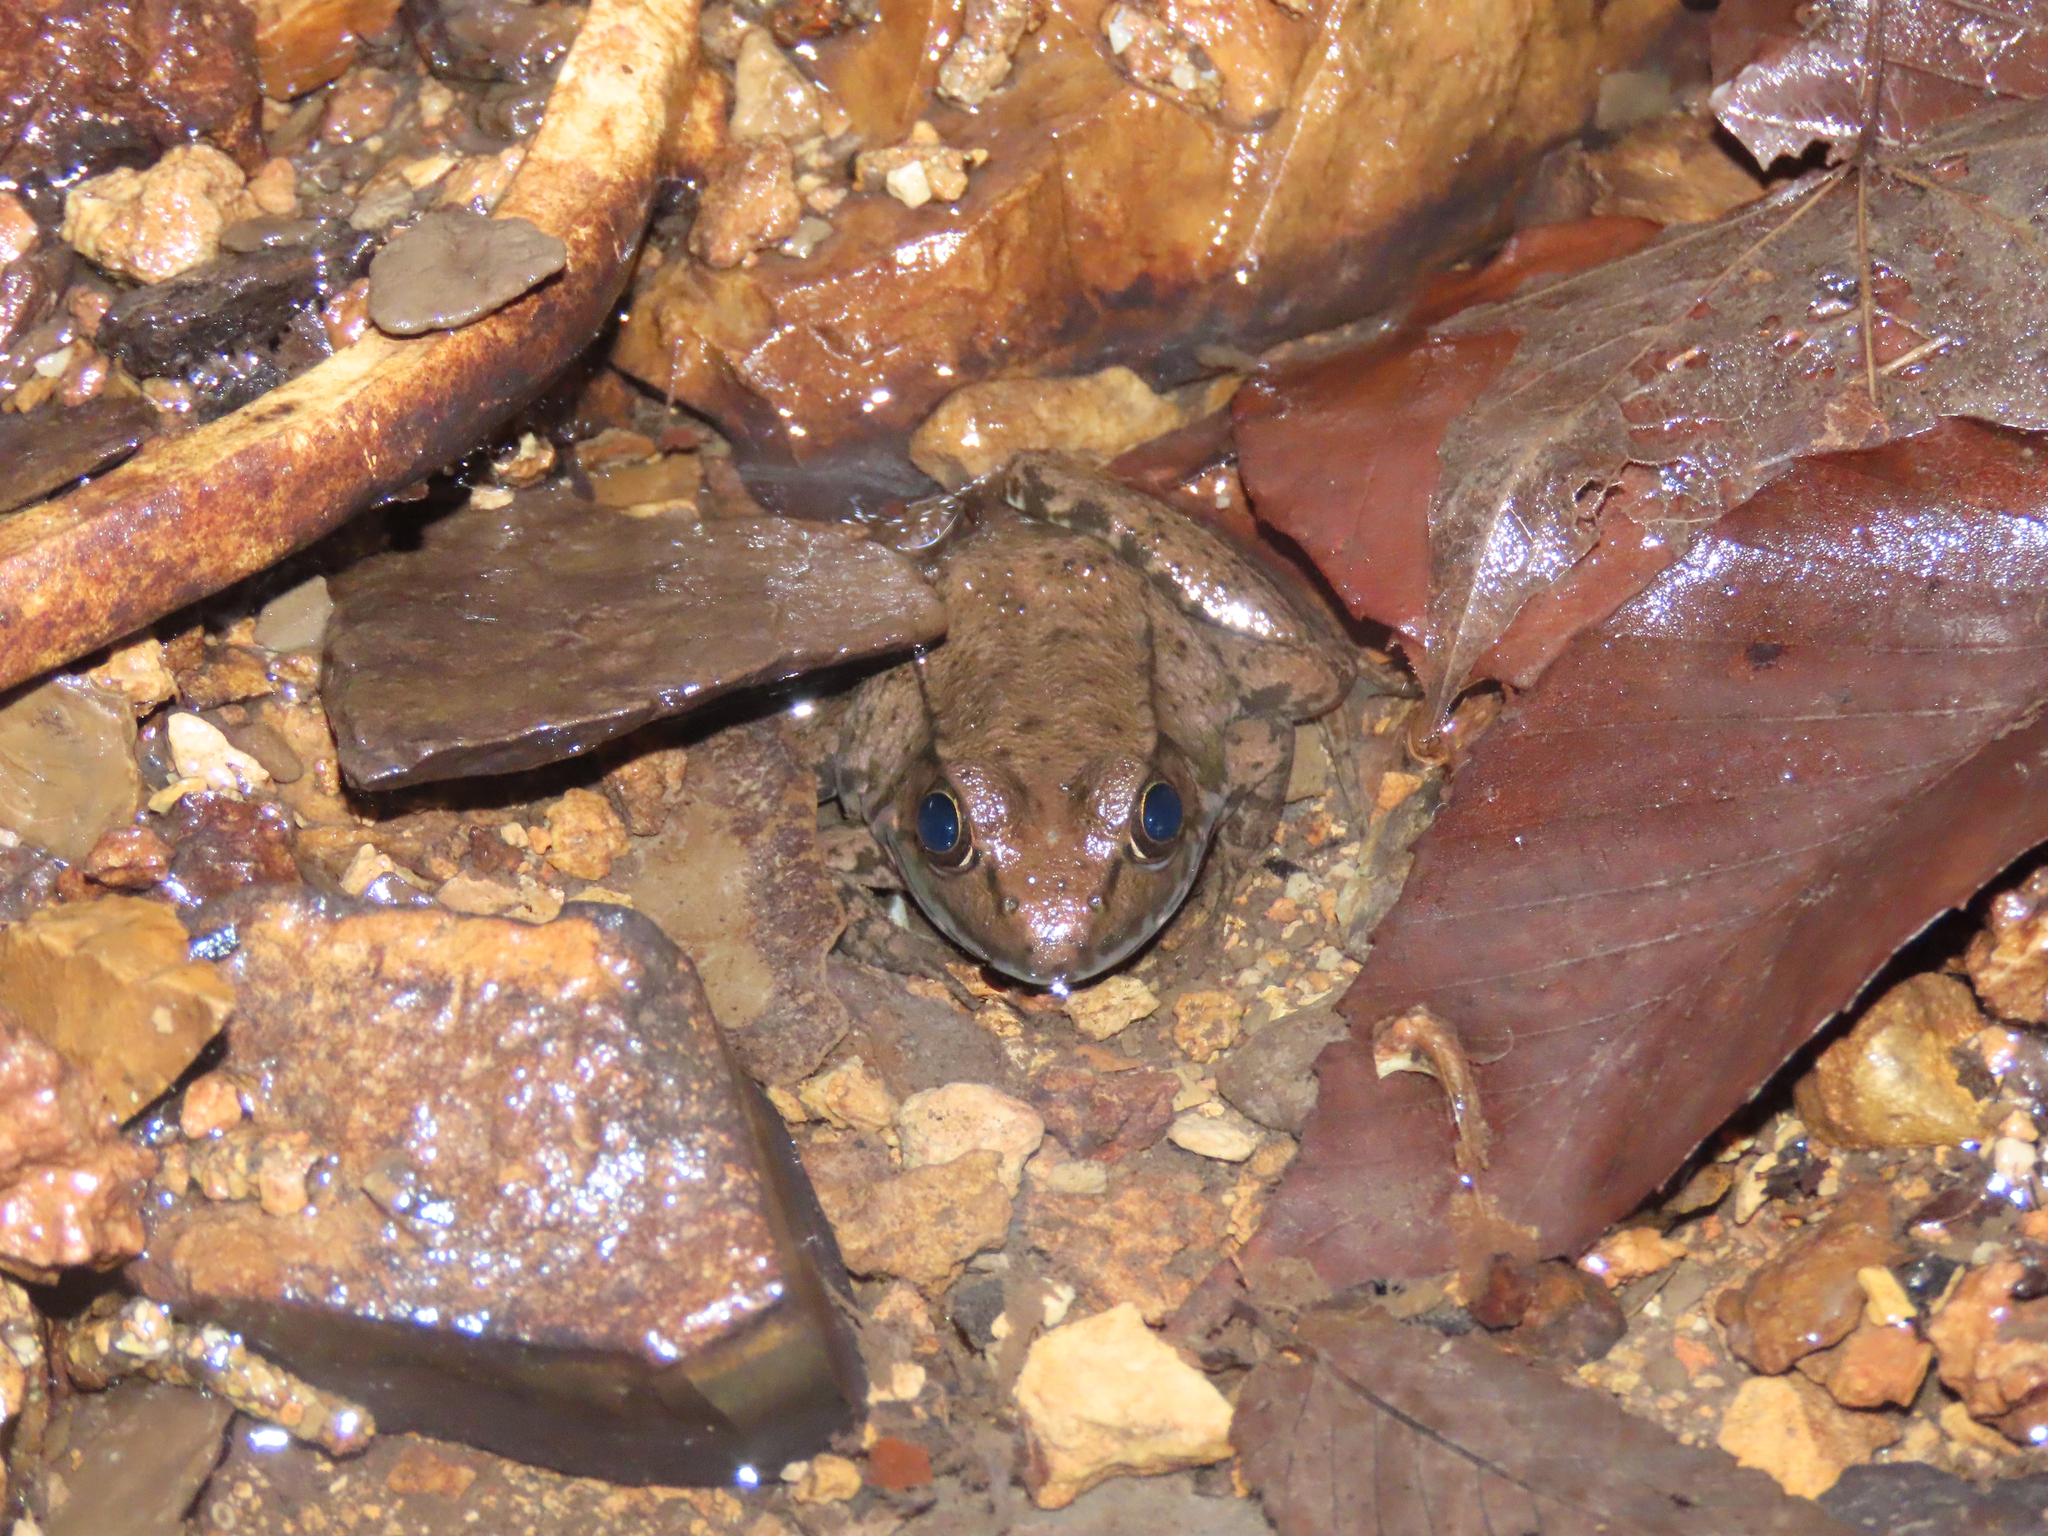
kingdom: Animalia
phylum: Chordata
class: Amphibia
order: Anura
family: Ranidae
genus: Lithobates
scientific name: Lithobates clamitans
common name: Green frog
